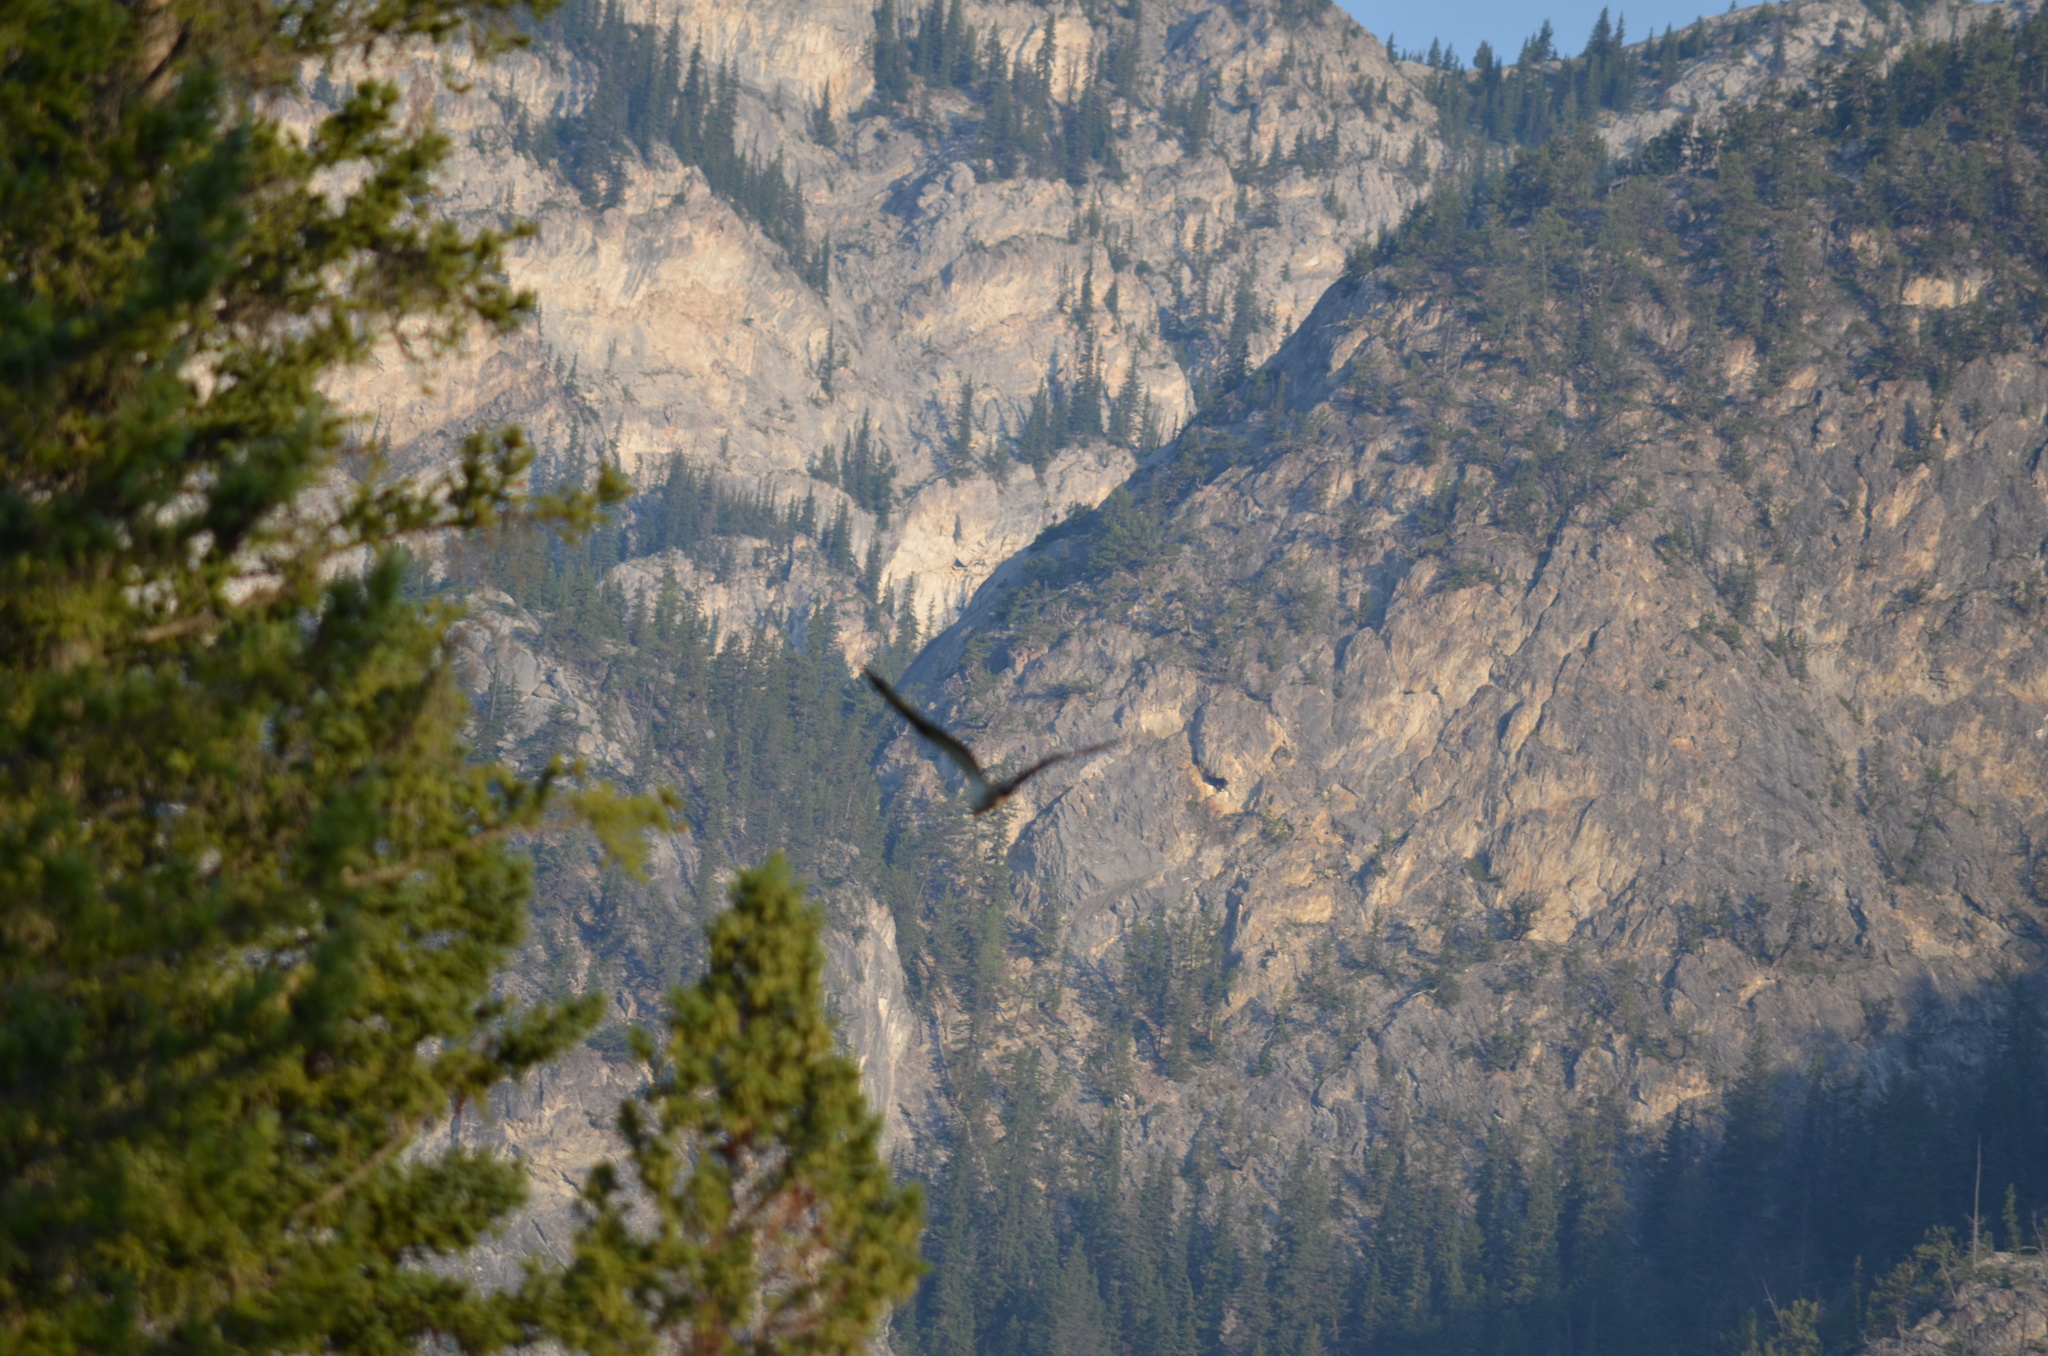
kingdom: Animalia
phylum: Chordata
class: Aves
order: Accipitriformes
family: Pandionidae
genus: Pandion
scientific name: Pandion haliaetus
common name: Osprey
